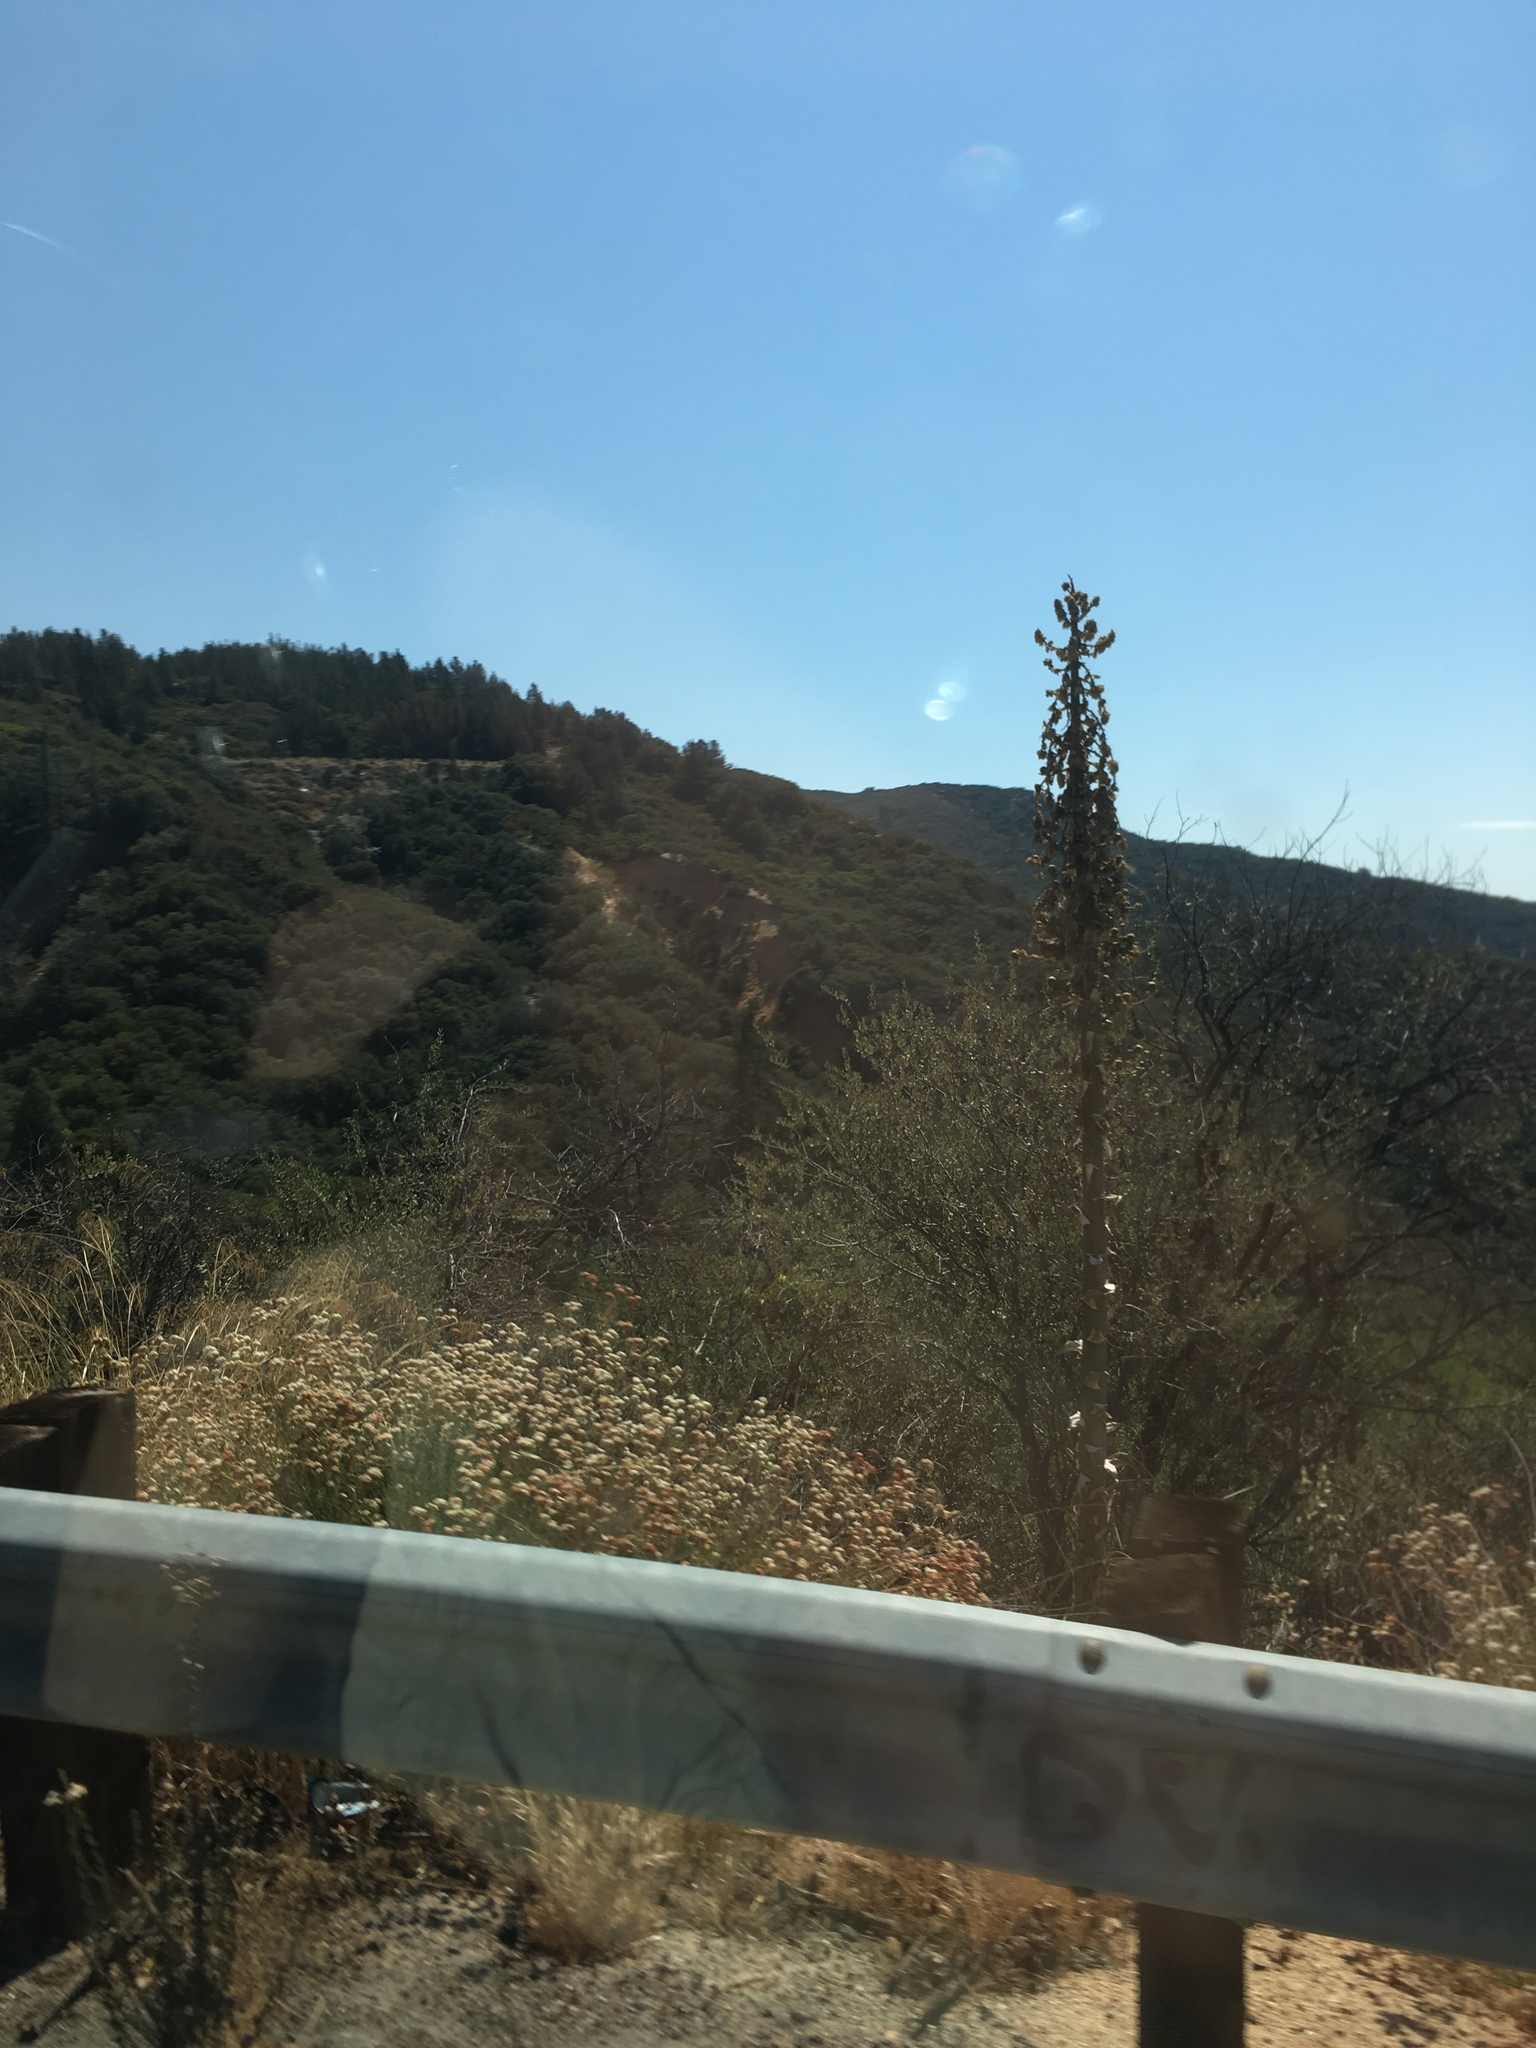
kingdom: Plantae
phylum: Tracheophyta
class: Magnoliopsida
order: Caryophyllales
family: Polygonaceae
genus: Eriogonum
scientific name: Eriogonum fasciculatum
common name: California wild buckwheat
